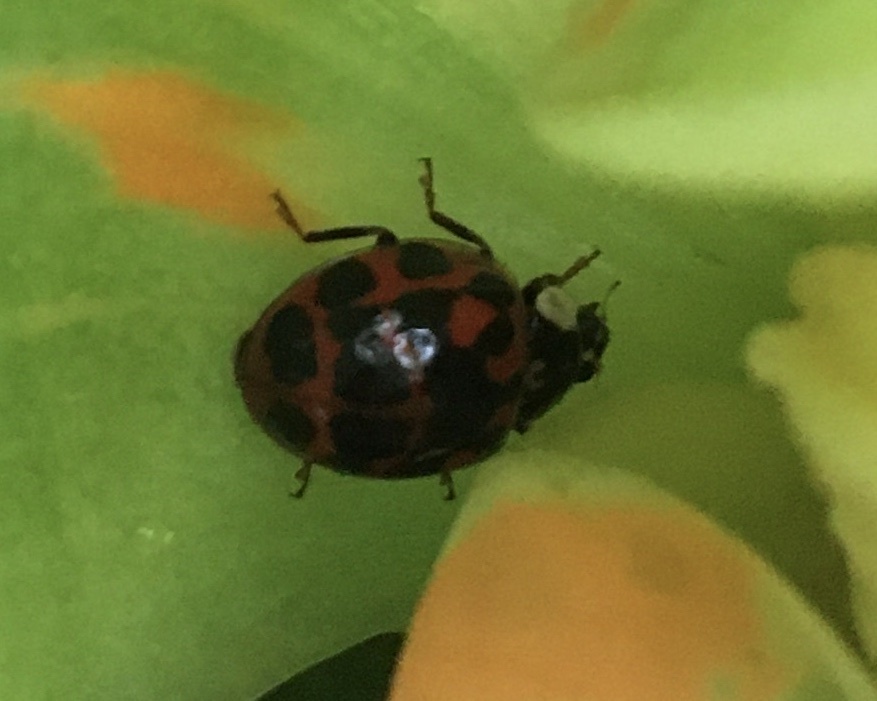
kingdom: Animalia
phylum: Arthropoda
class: Insecta
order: Coleoptera
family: Coccinellidae
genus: Harmonia
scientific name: Harmonia axyridis
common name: Harlequin ladybird
